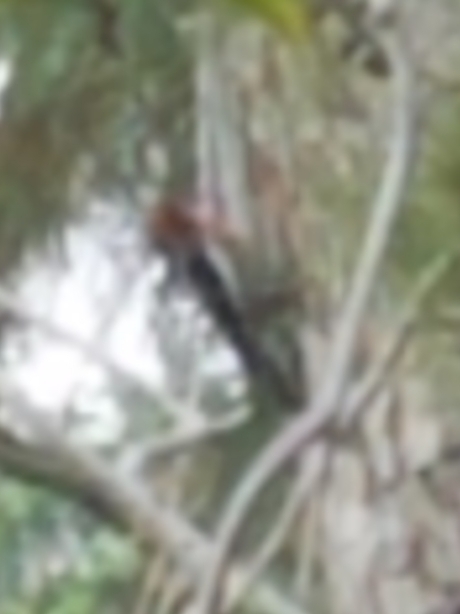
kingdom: Animalia
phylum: Chordata
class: Aves
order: Piciformes
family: Picidae
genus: Sphyrapicus
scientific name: Sphyrapicus ruber
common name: Red-breasted sapsucker
